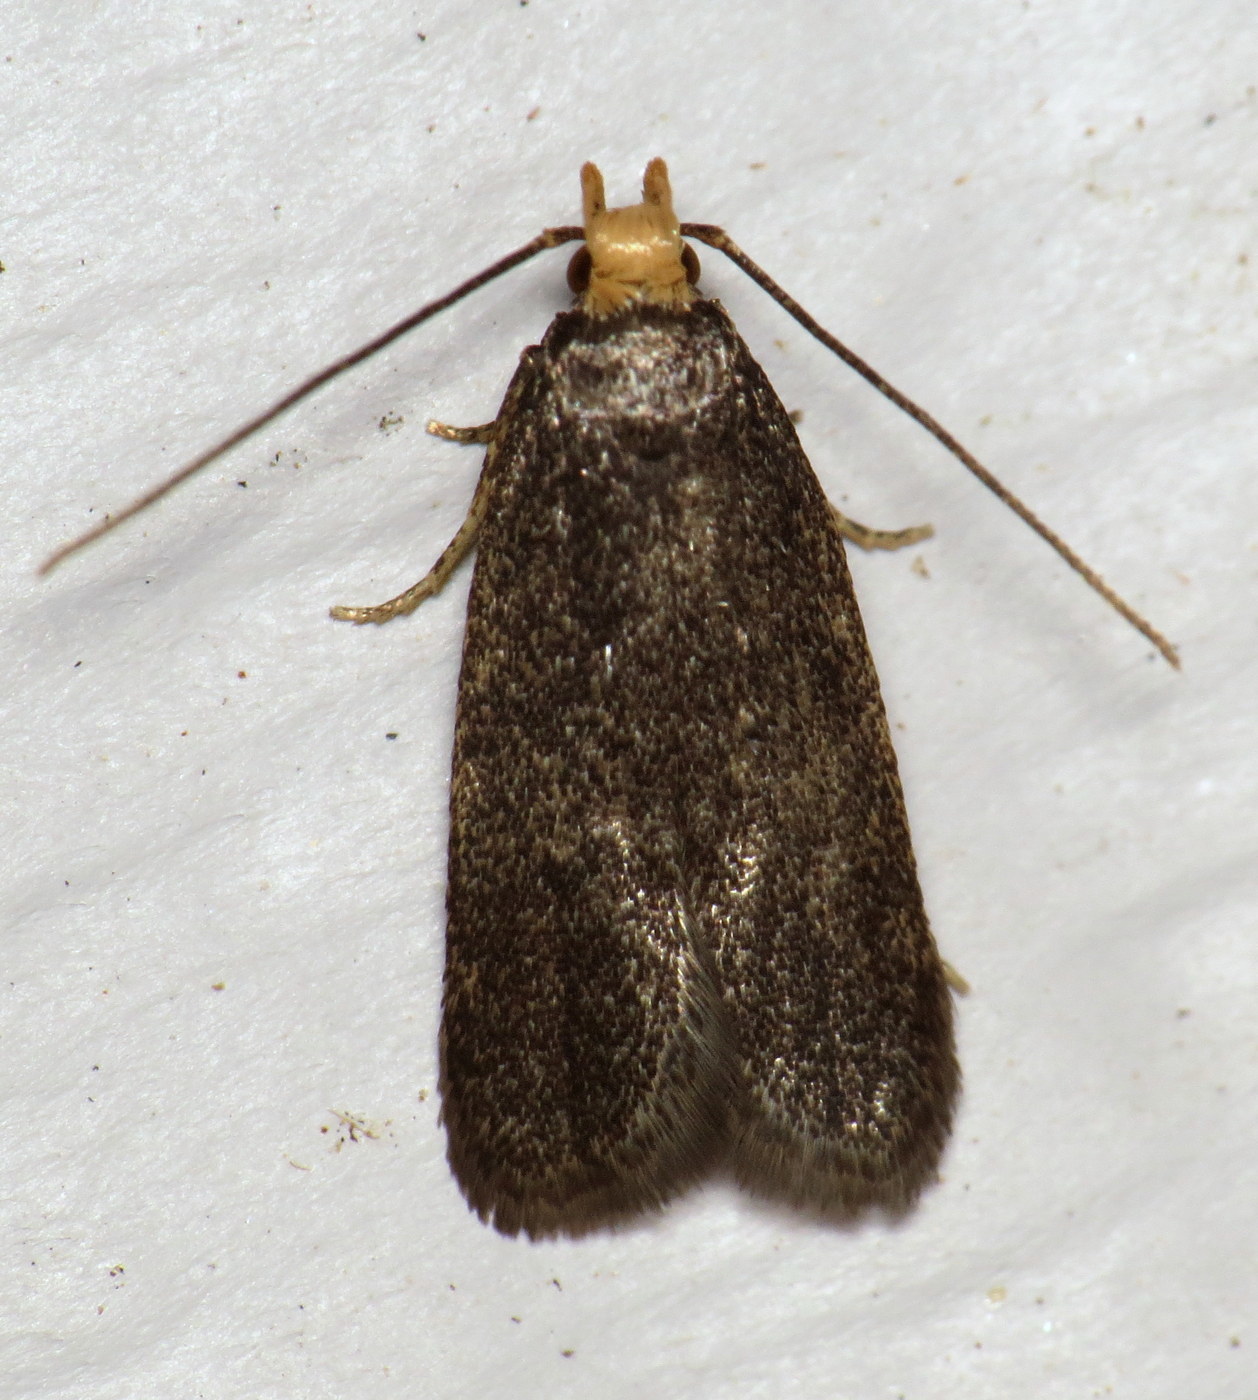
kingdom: Animalia
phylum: Arthropoda
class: Insecta
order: Lepidoptera
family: Autostichidae
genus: Glyphidocera
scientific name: Glyphidocera lithodoxa
